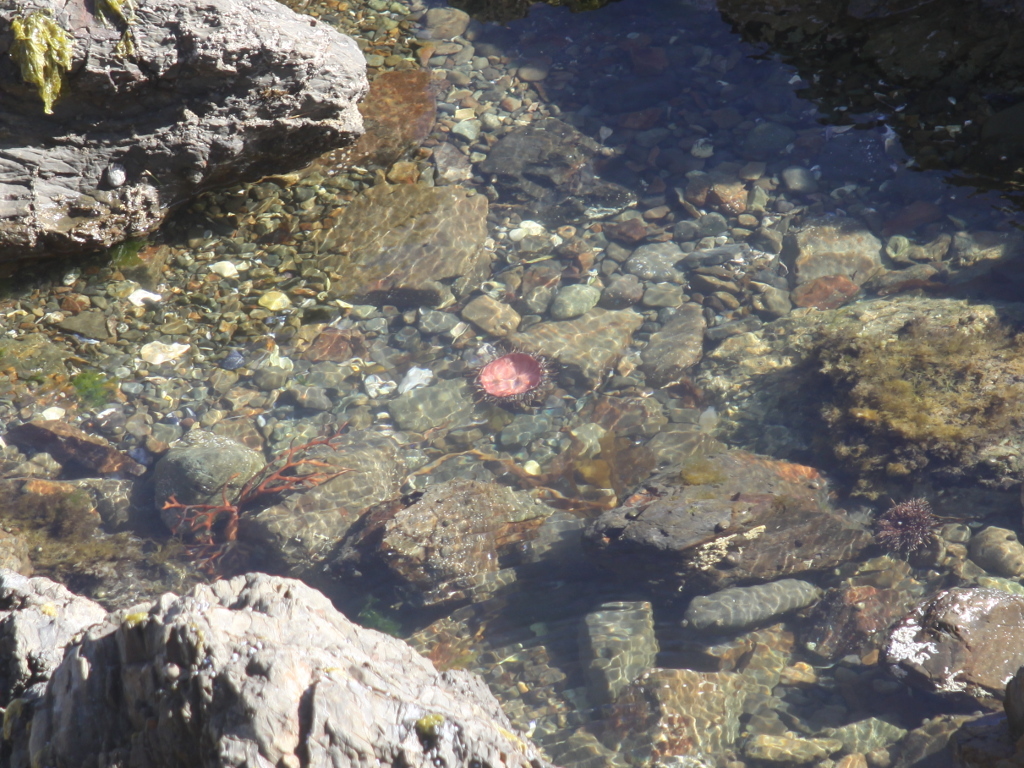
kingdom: Animalia
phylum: Echinodermata
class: Echinoidea
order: Camarodonta
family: Echinometridae
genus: Evechinus
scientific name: Evechinus chloroticus
